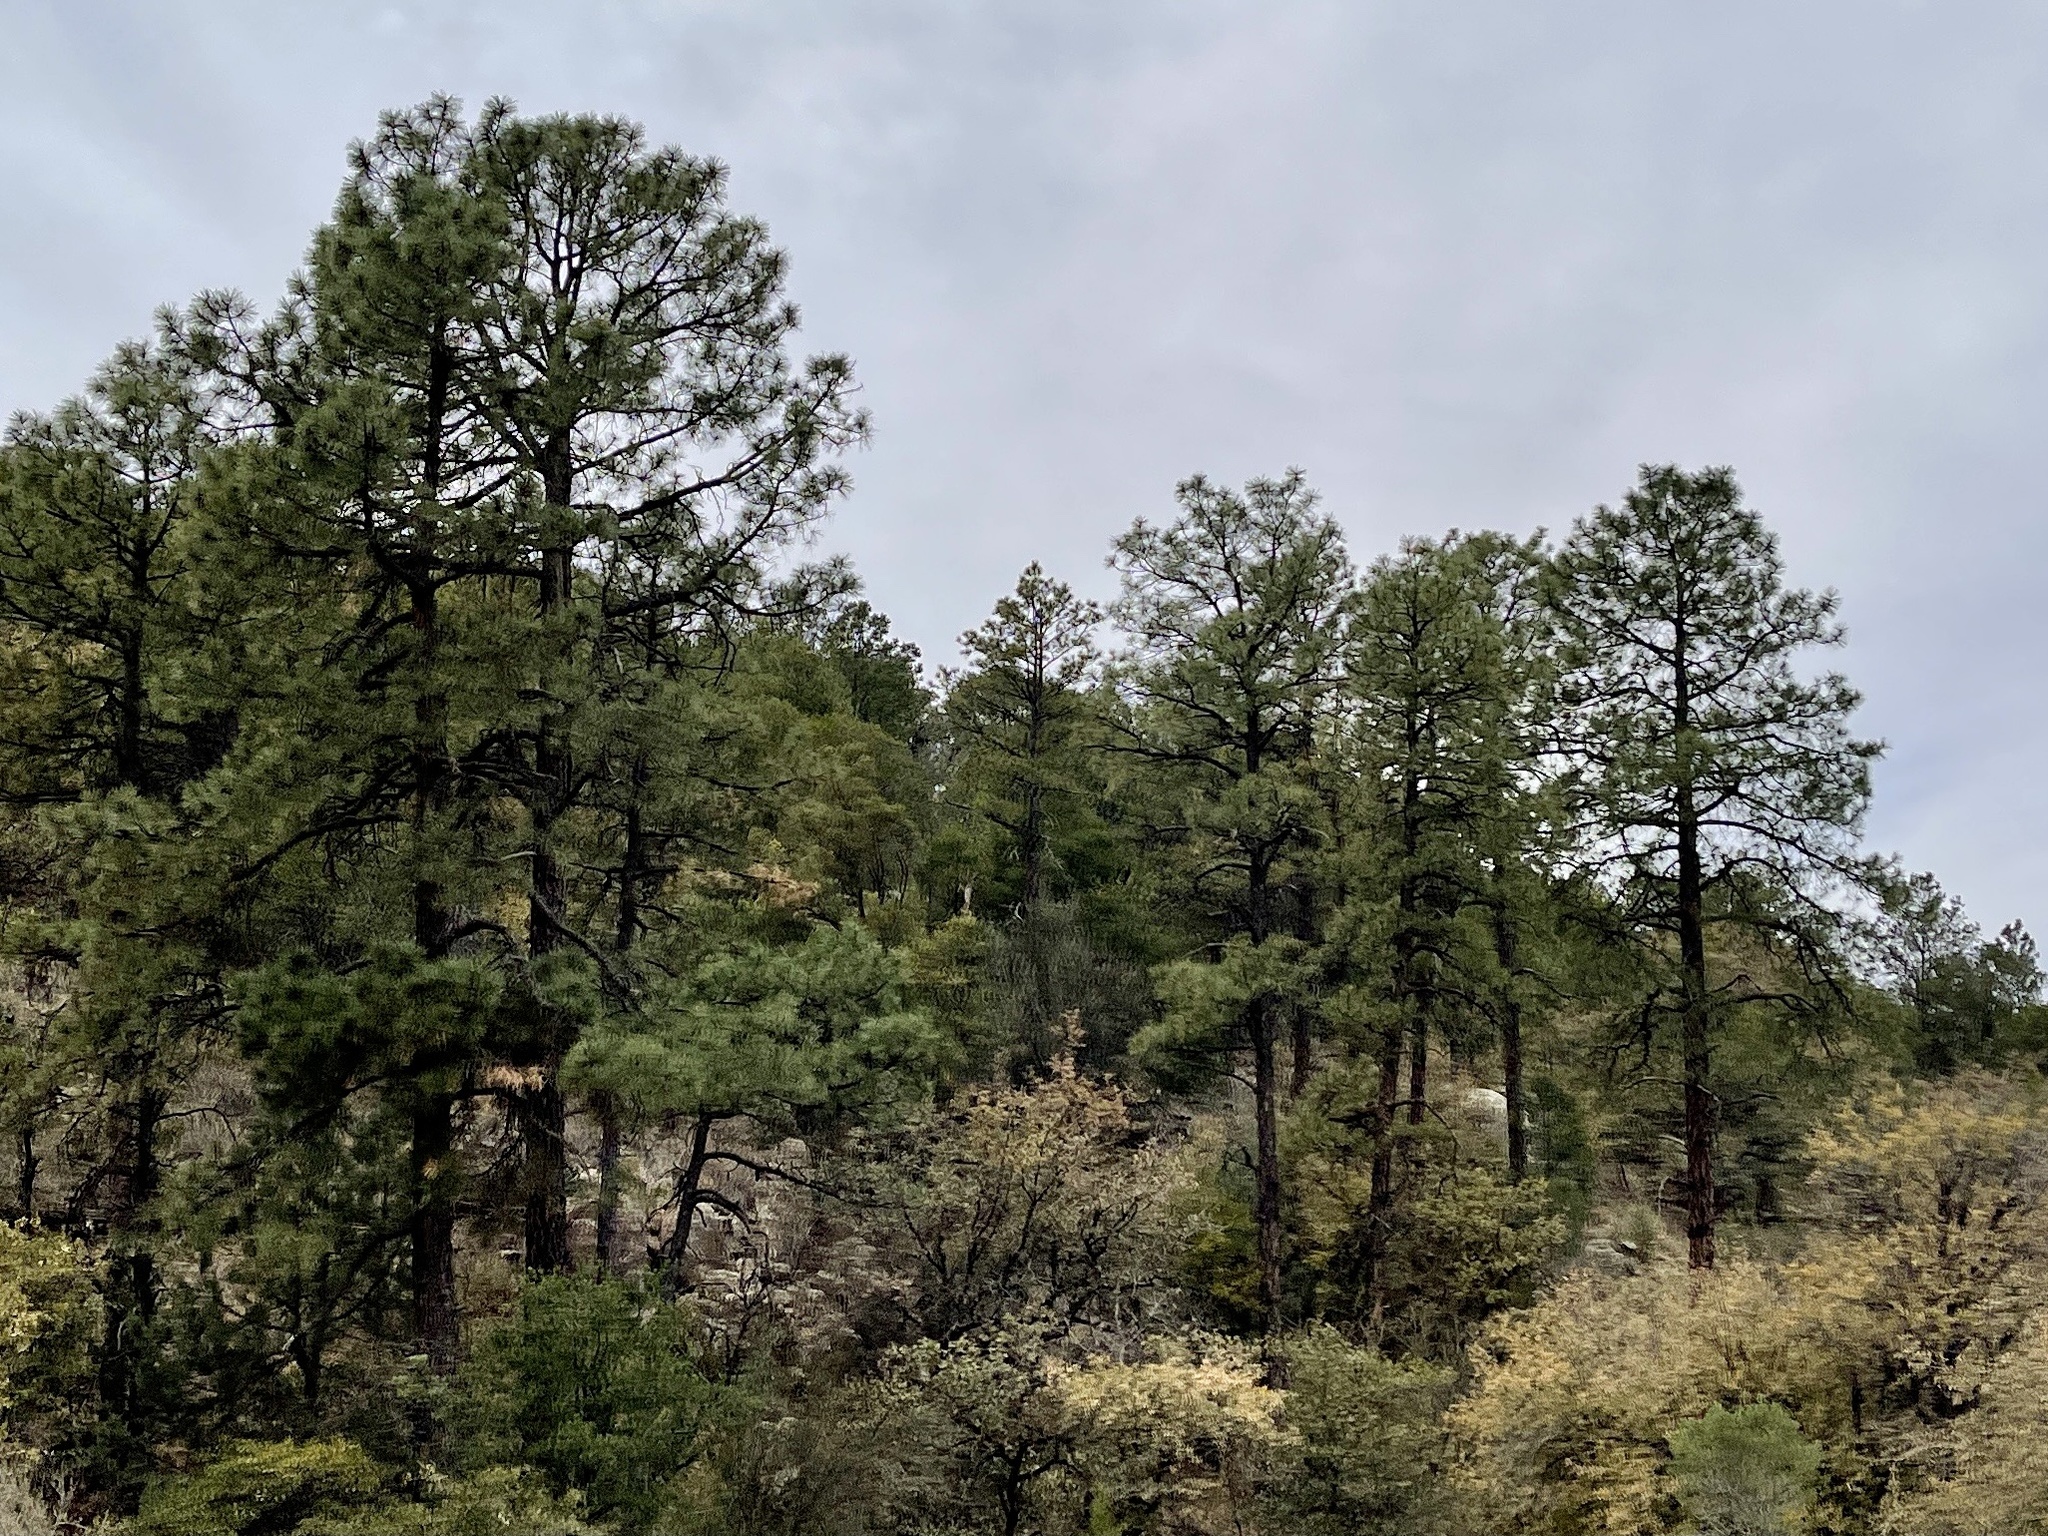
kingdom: Plantae
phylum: Tracheophyta
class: Pinopsida
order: Pinales
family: Pinaceae
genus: Pinus
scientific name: Pinus ponderosa
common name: Western yellow-pine
